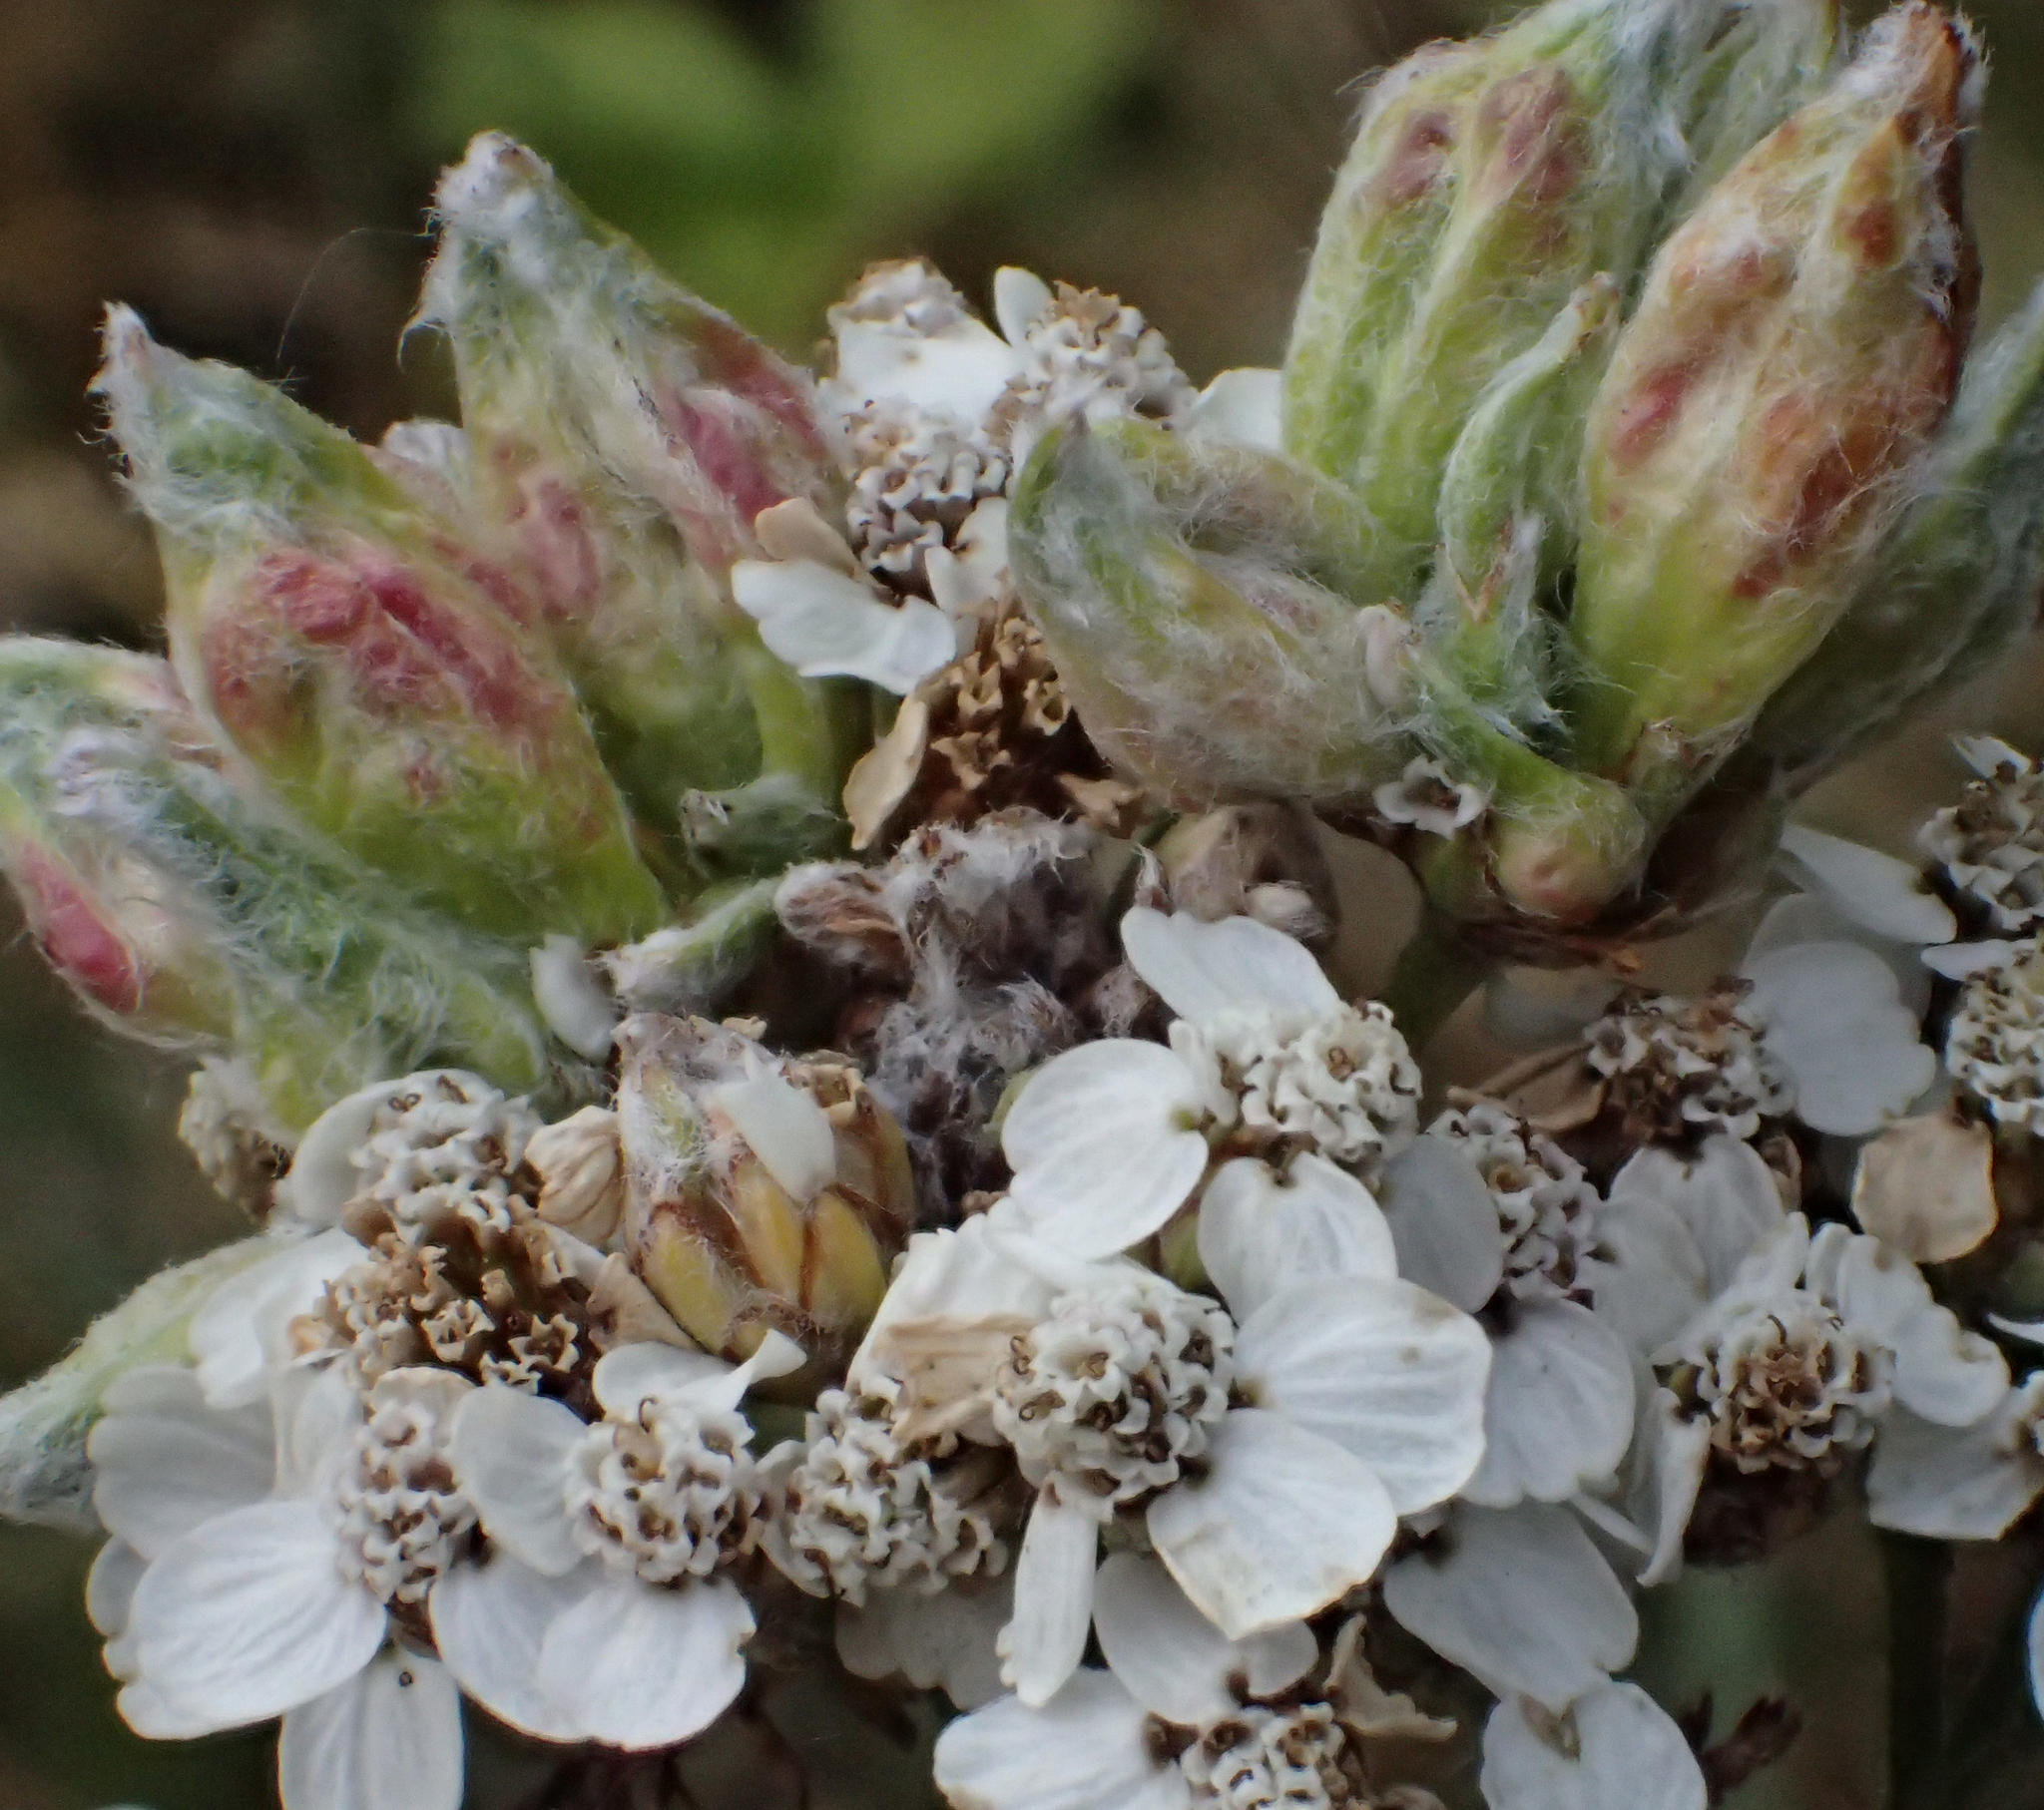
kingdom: Plantae
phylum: Tracheophyta
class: Magnoliopsida
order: Asterales
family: Asteraceae
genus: Achillea
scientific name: Achillea millefolium
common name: Yarrow
